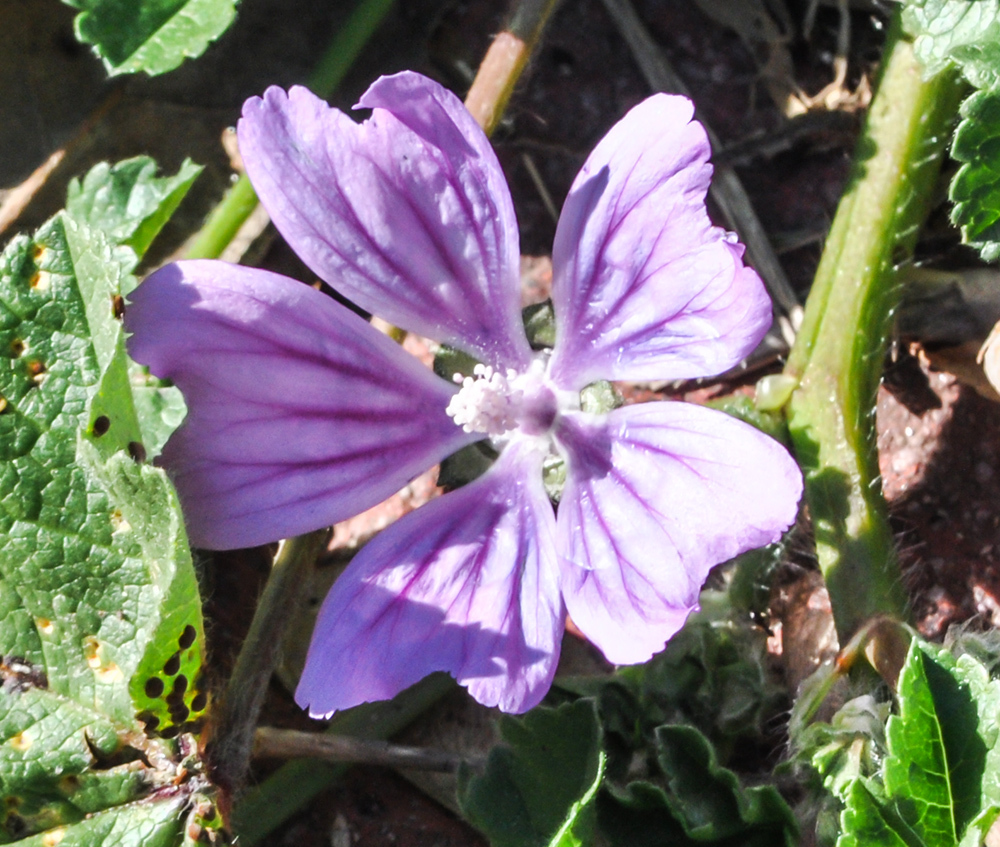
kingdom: Plantae
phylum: Tracheophyta
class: Magnoliopsida
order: Malvales
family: Malvaceae
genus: Malva
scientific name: Malva sylvestris
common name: Common mallow
